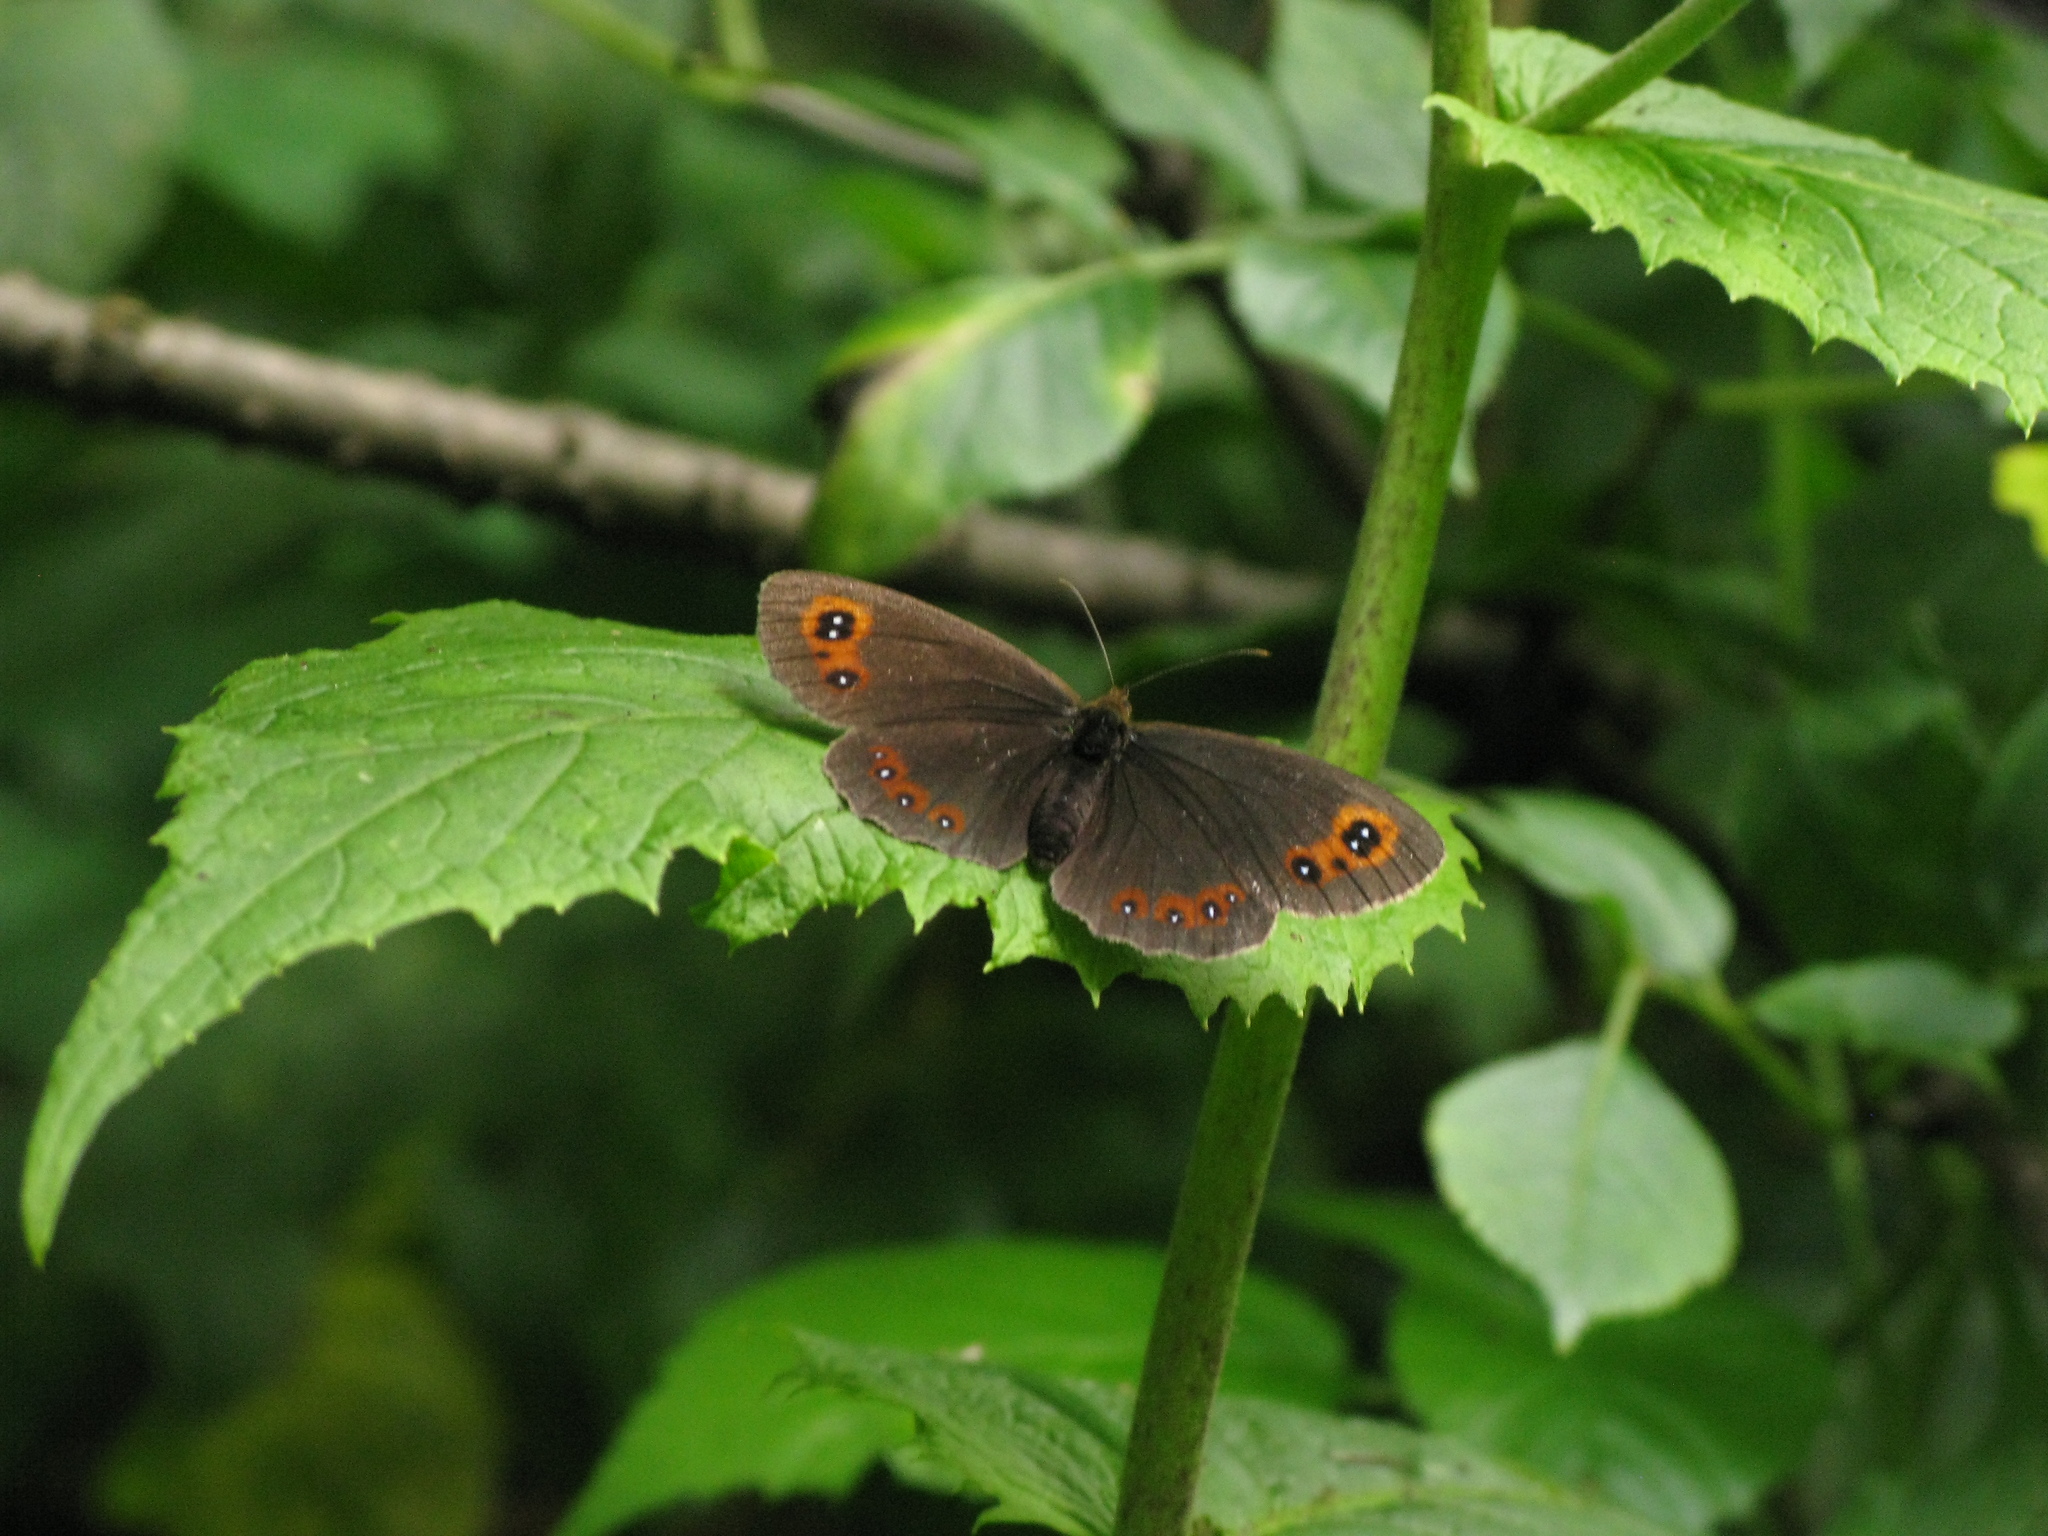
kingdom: Animalia
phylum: Arthropoda
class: Insecta
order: Lepidoptera
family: Nymphalidae
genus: Erebia
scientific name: Erebia aethiops
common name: Scotch argus
